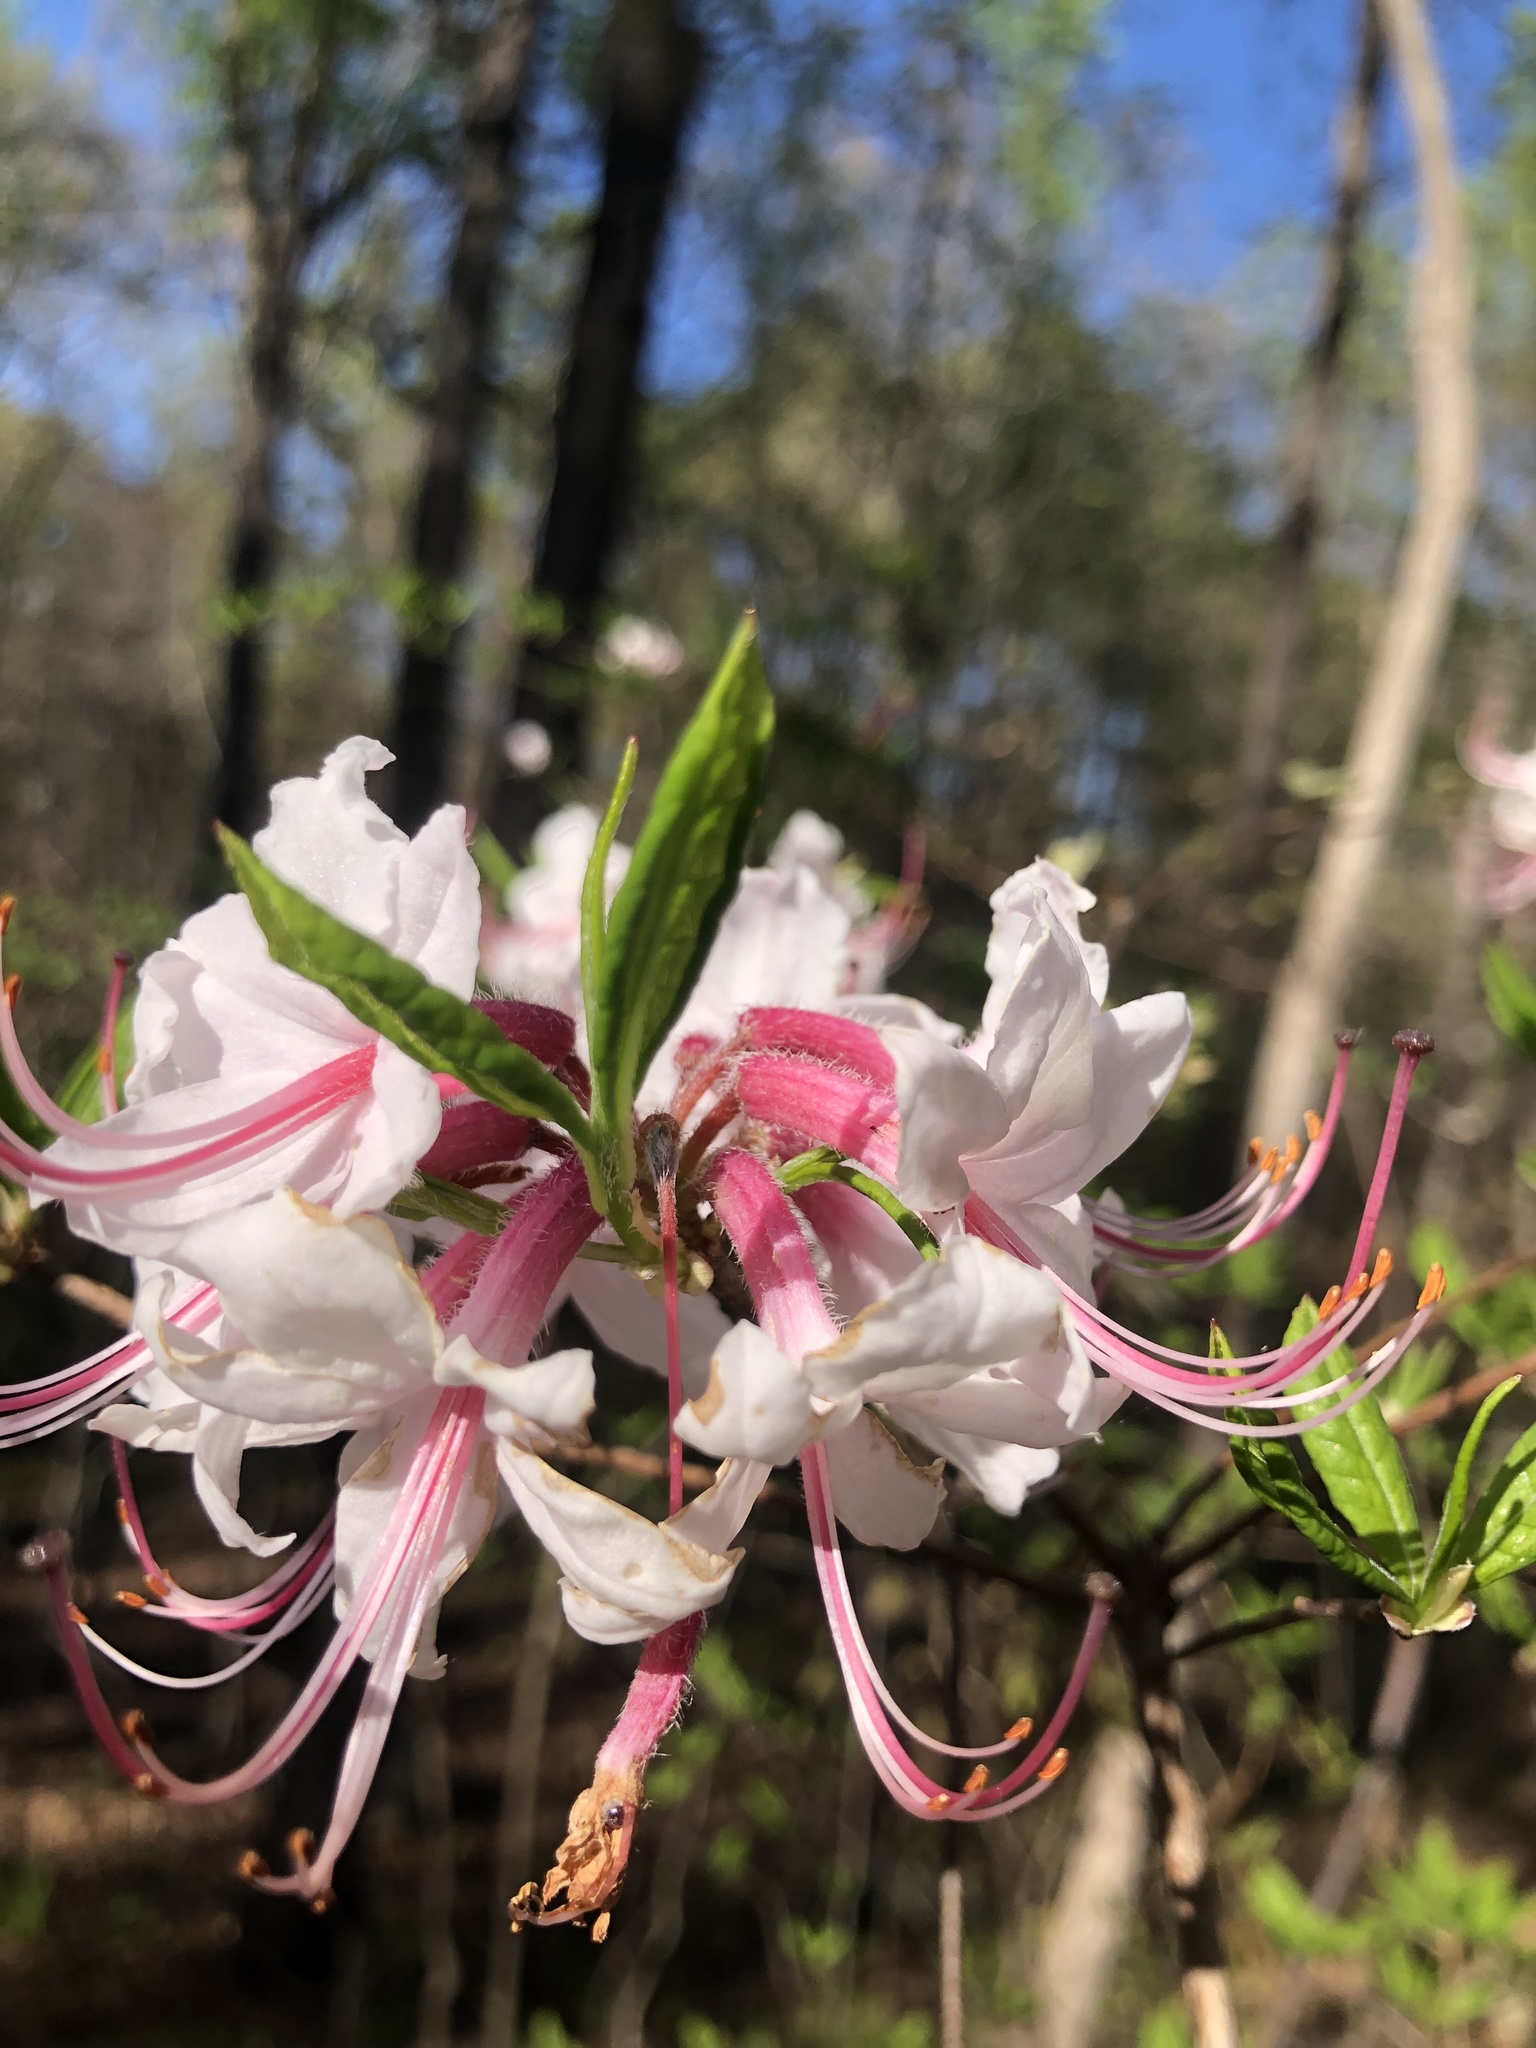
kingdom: Plantae
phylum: Tracheophyta
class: Magnoliopsida
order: Ericales
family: Ericaceae
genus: Rhododendron
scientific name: Rhododendron periclymenoides
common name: Election-pink
